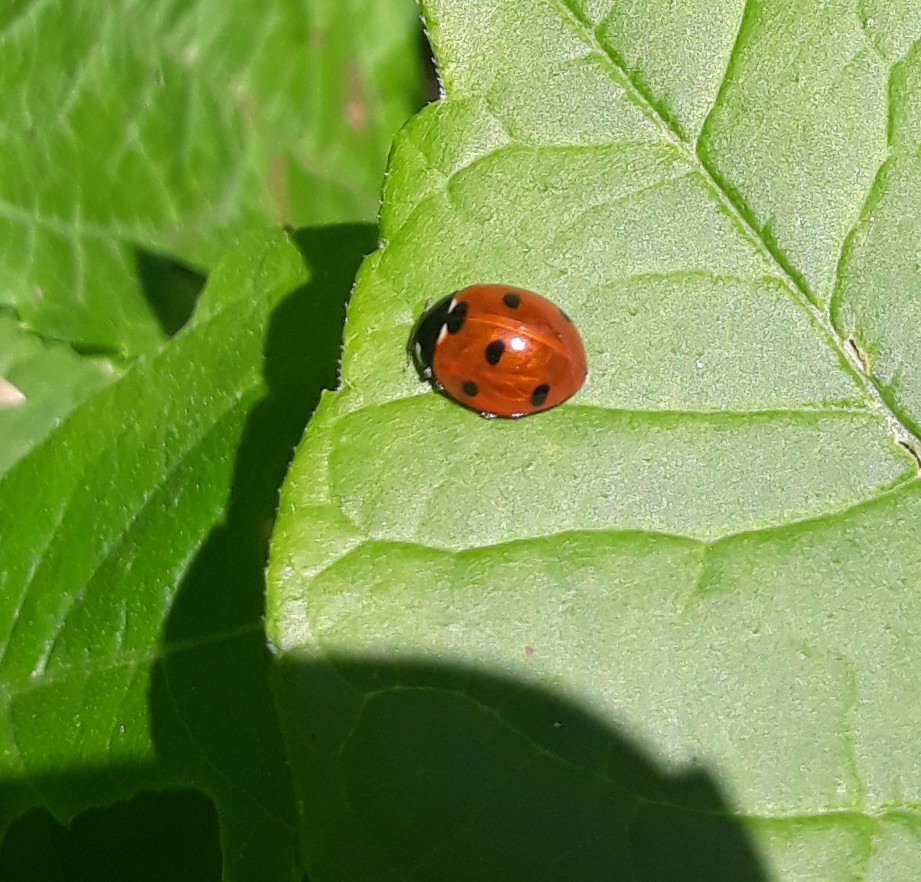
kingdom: Animalia
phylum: Arthropoda
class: Insecta
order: Coleoptera
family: Coccinellidae
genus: Coccinella
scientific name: Coccinella septempunctata
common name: Sevenspotted lady beetle
